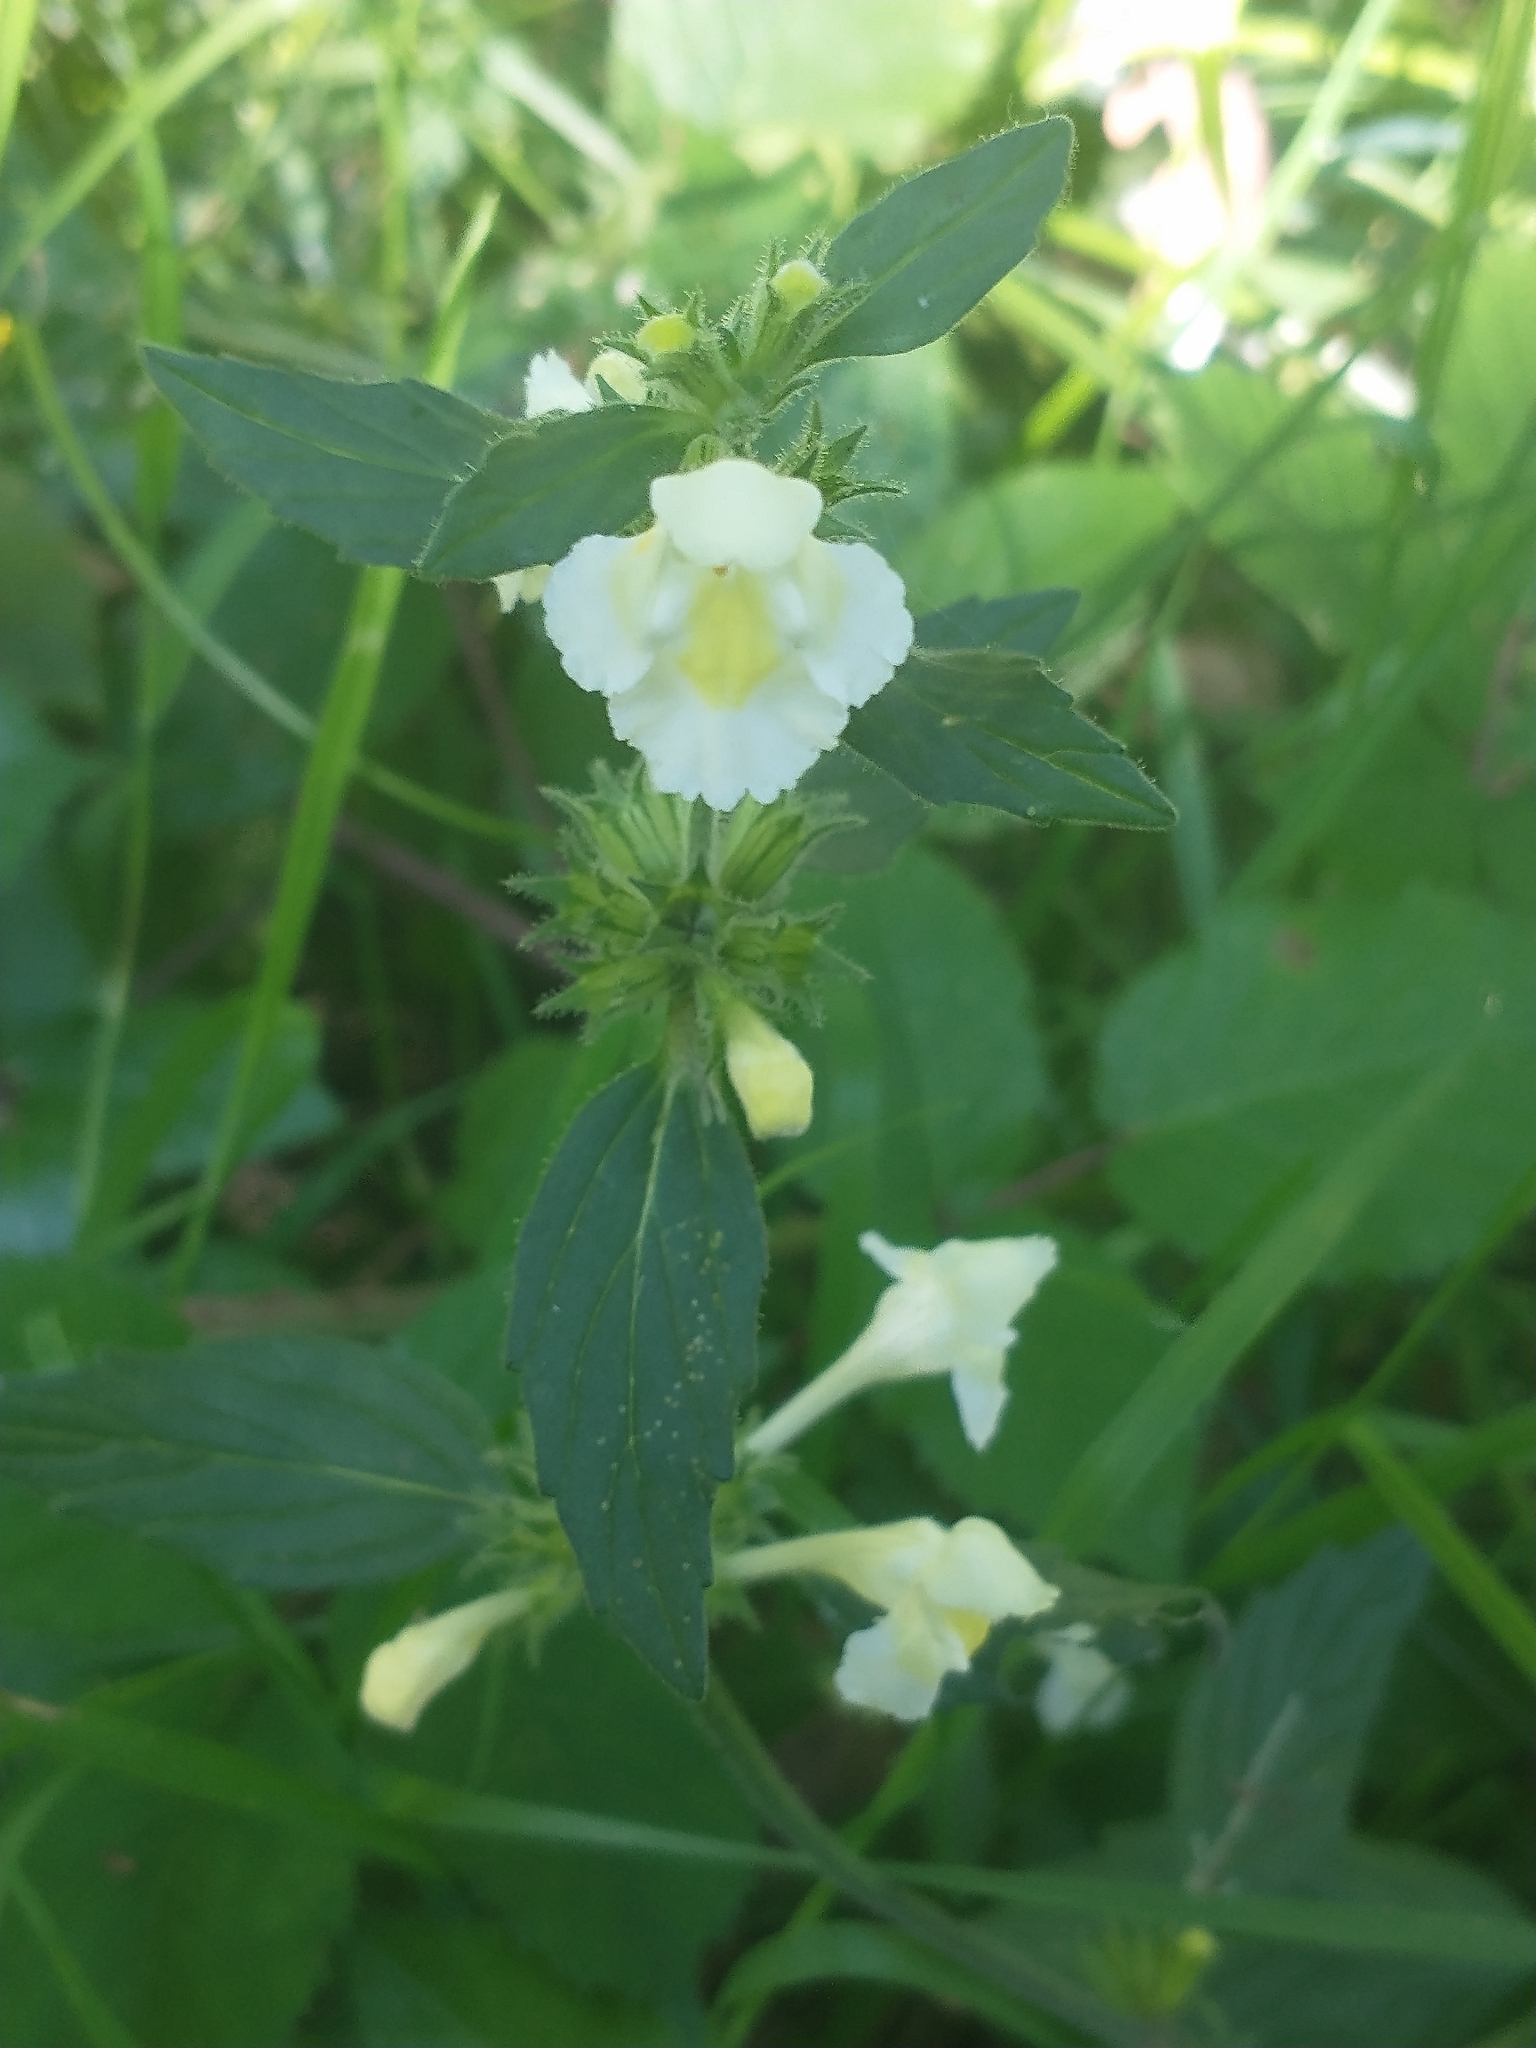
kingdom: Plantae
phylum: Tracheophyta
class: Magnoliopsida
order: Lamiales
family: Lamiaceae
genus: Galeopsis
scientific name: Galeopsis segetum
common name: Downy hemp-nettle
